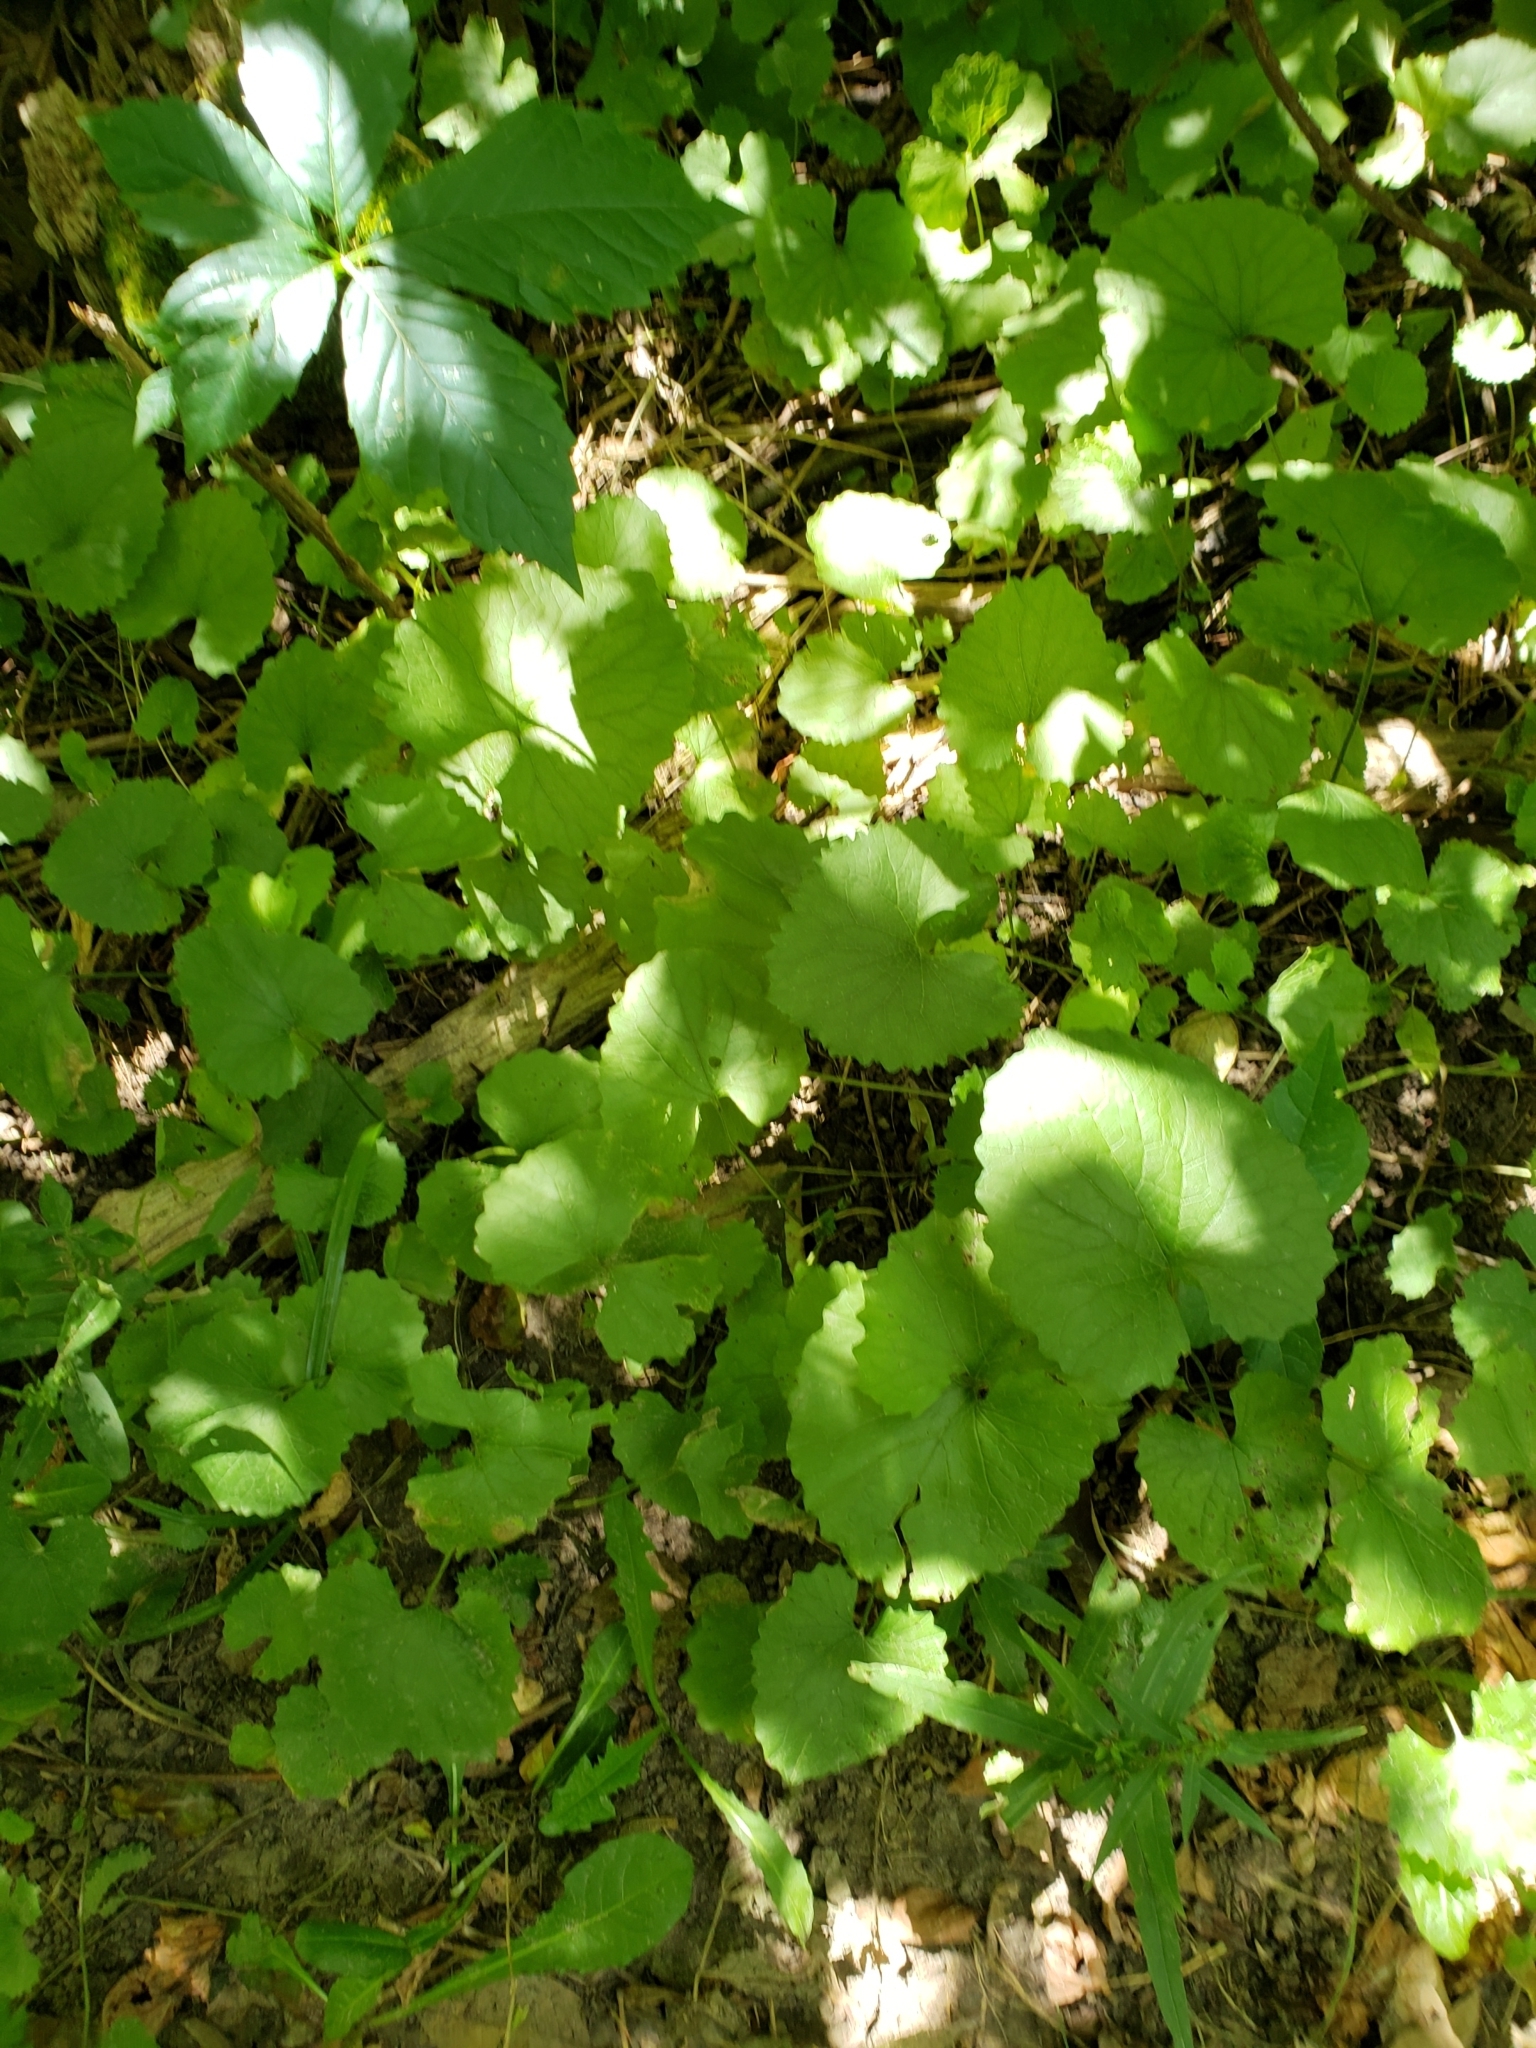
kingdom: Plantae
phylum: Tracheophyta
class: Magnoliopsida
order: Brassicales
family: Brassicaceae
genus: Alliaria
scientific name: Alliaria petiolata
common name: Garlic mustard
